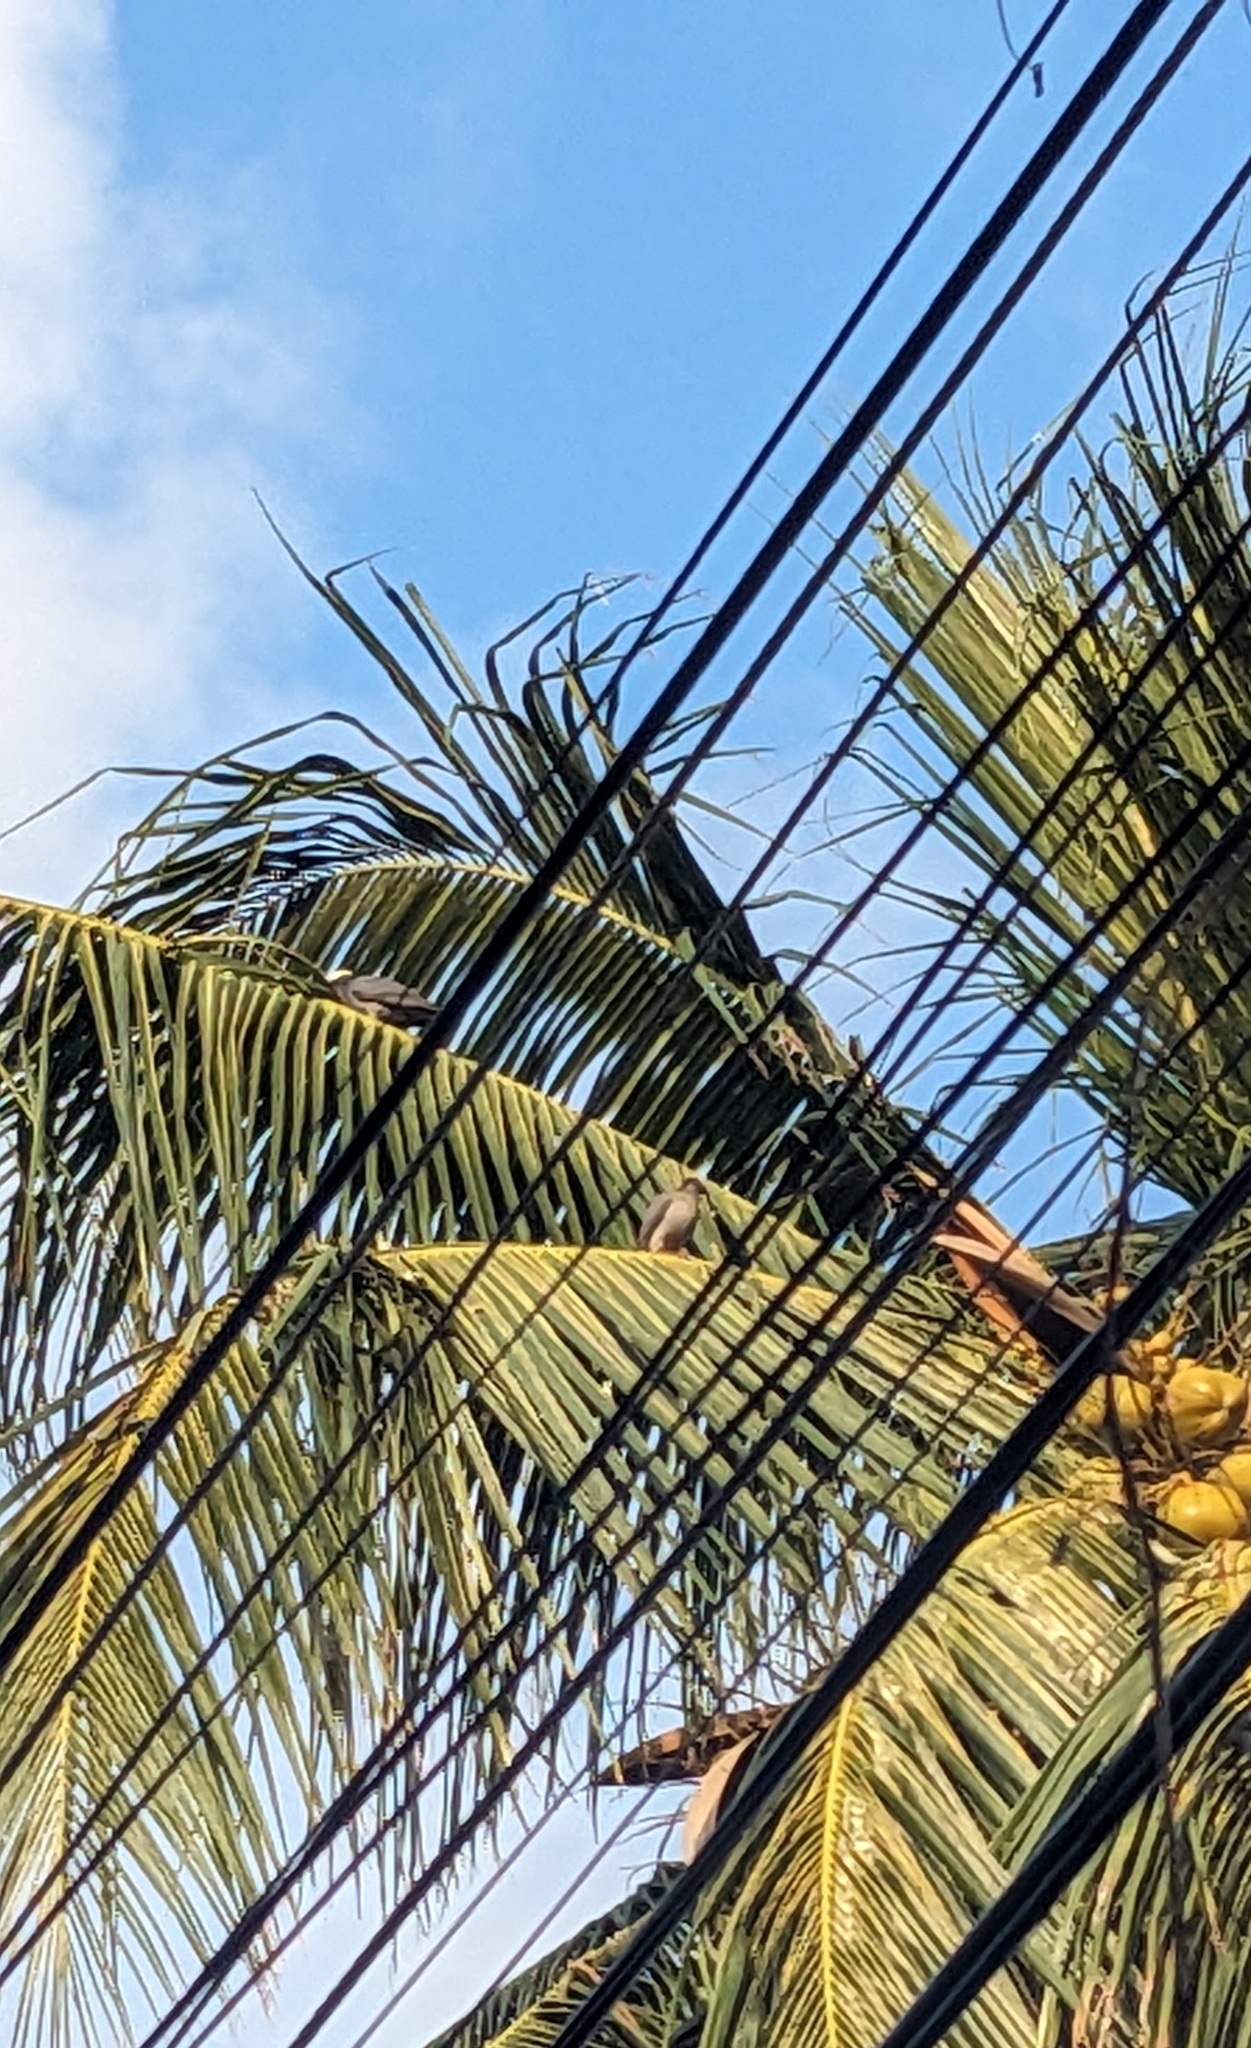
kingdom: Animalia
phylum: Chordata
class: Aves
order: Columbiformes
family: Columbidae
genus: Patagioenas
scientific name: Patagioenas leucocephala
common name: White-crowned pigeon
